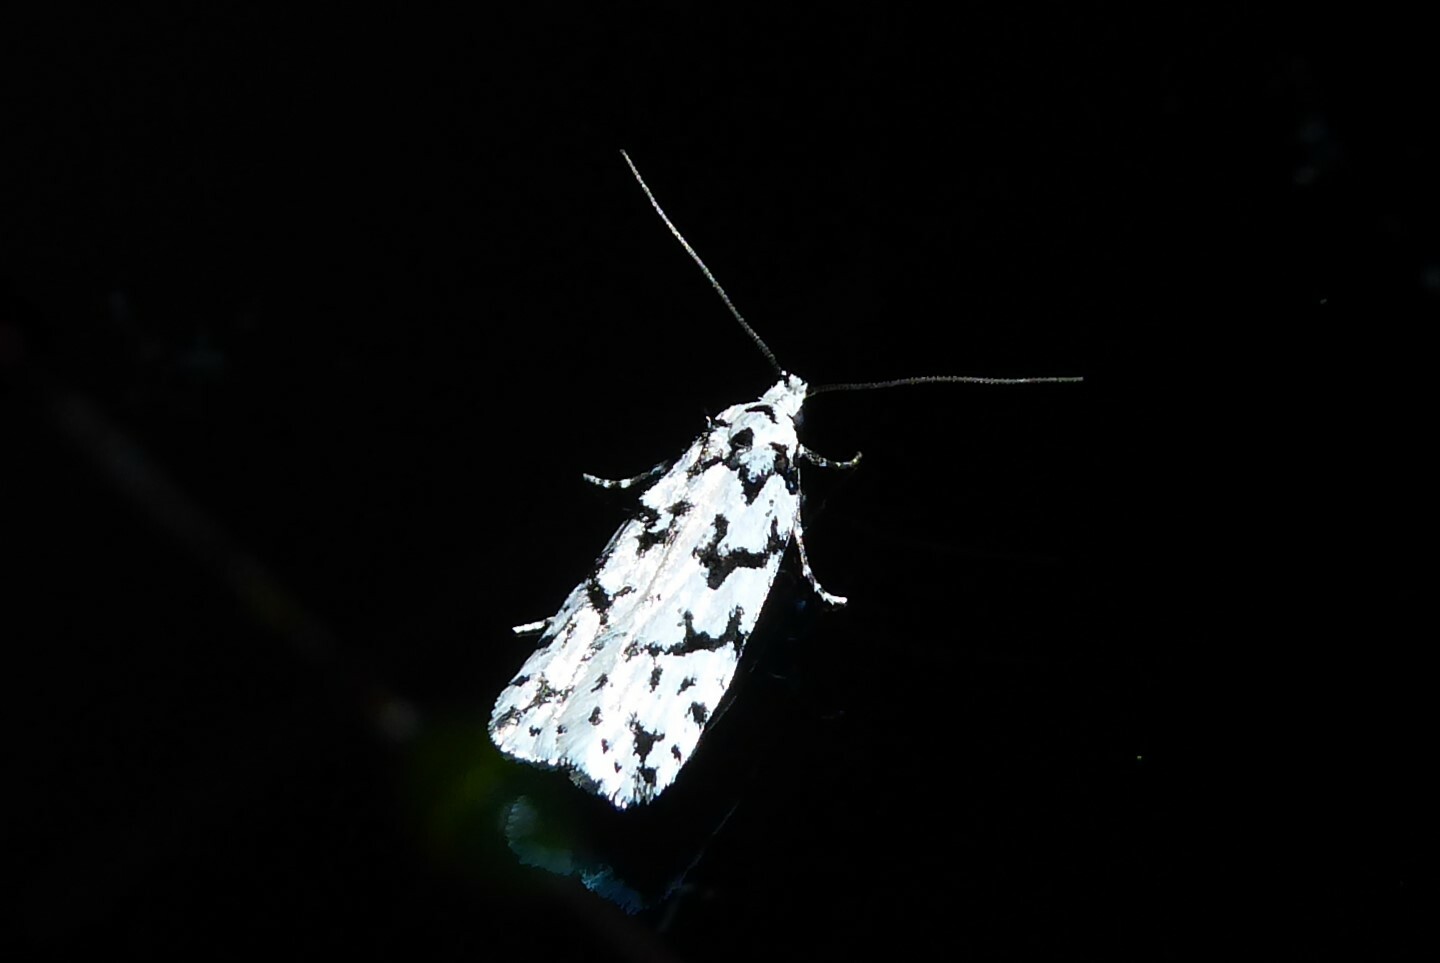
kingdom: Animalia
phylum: Arthropoda
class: Insecta
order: Lepidoptera
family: Oecophoridae
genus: Izatha
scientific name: Izatha katadiktya
